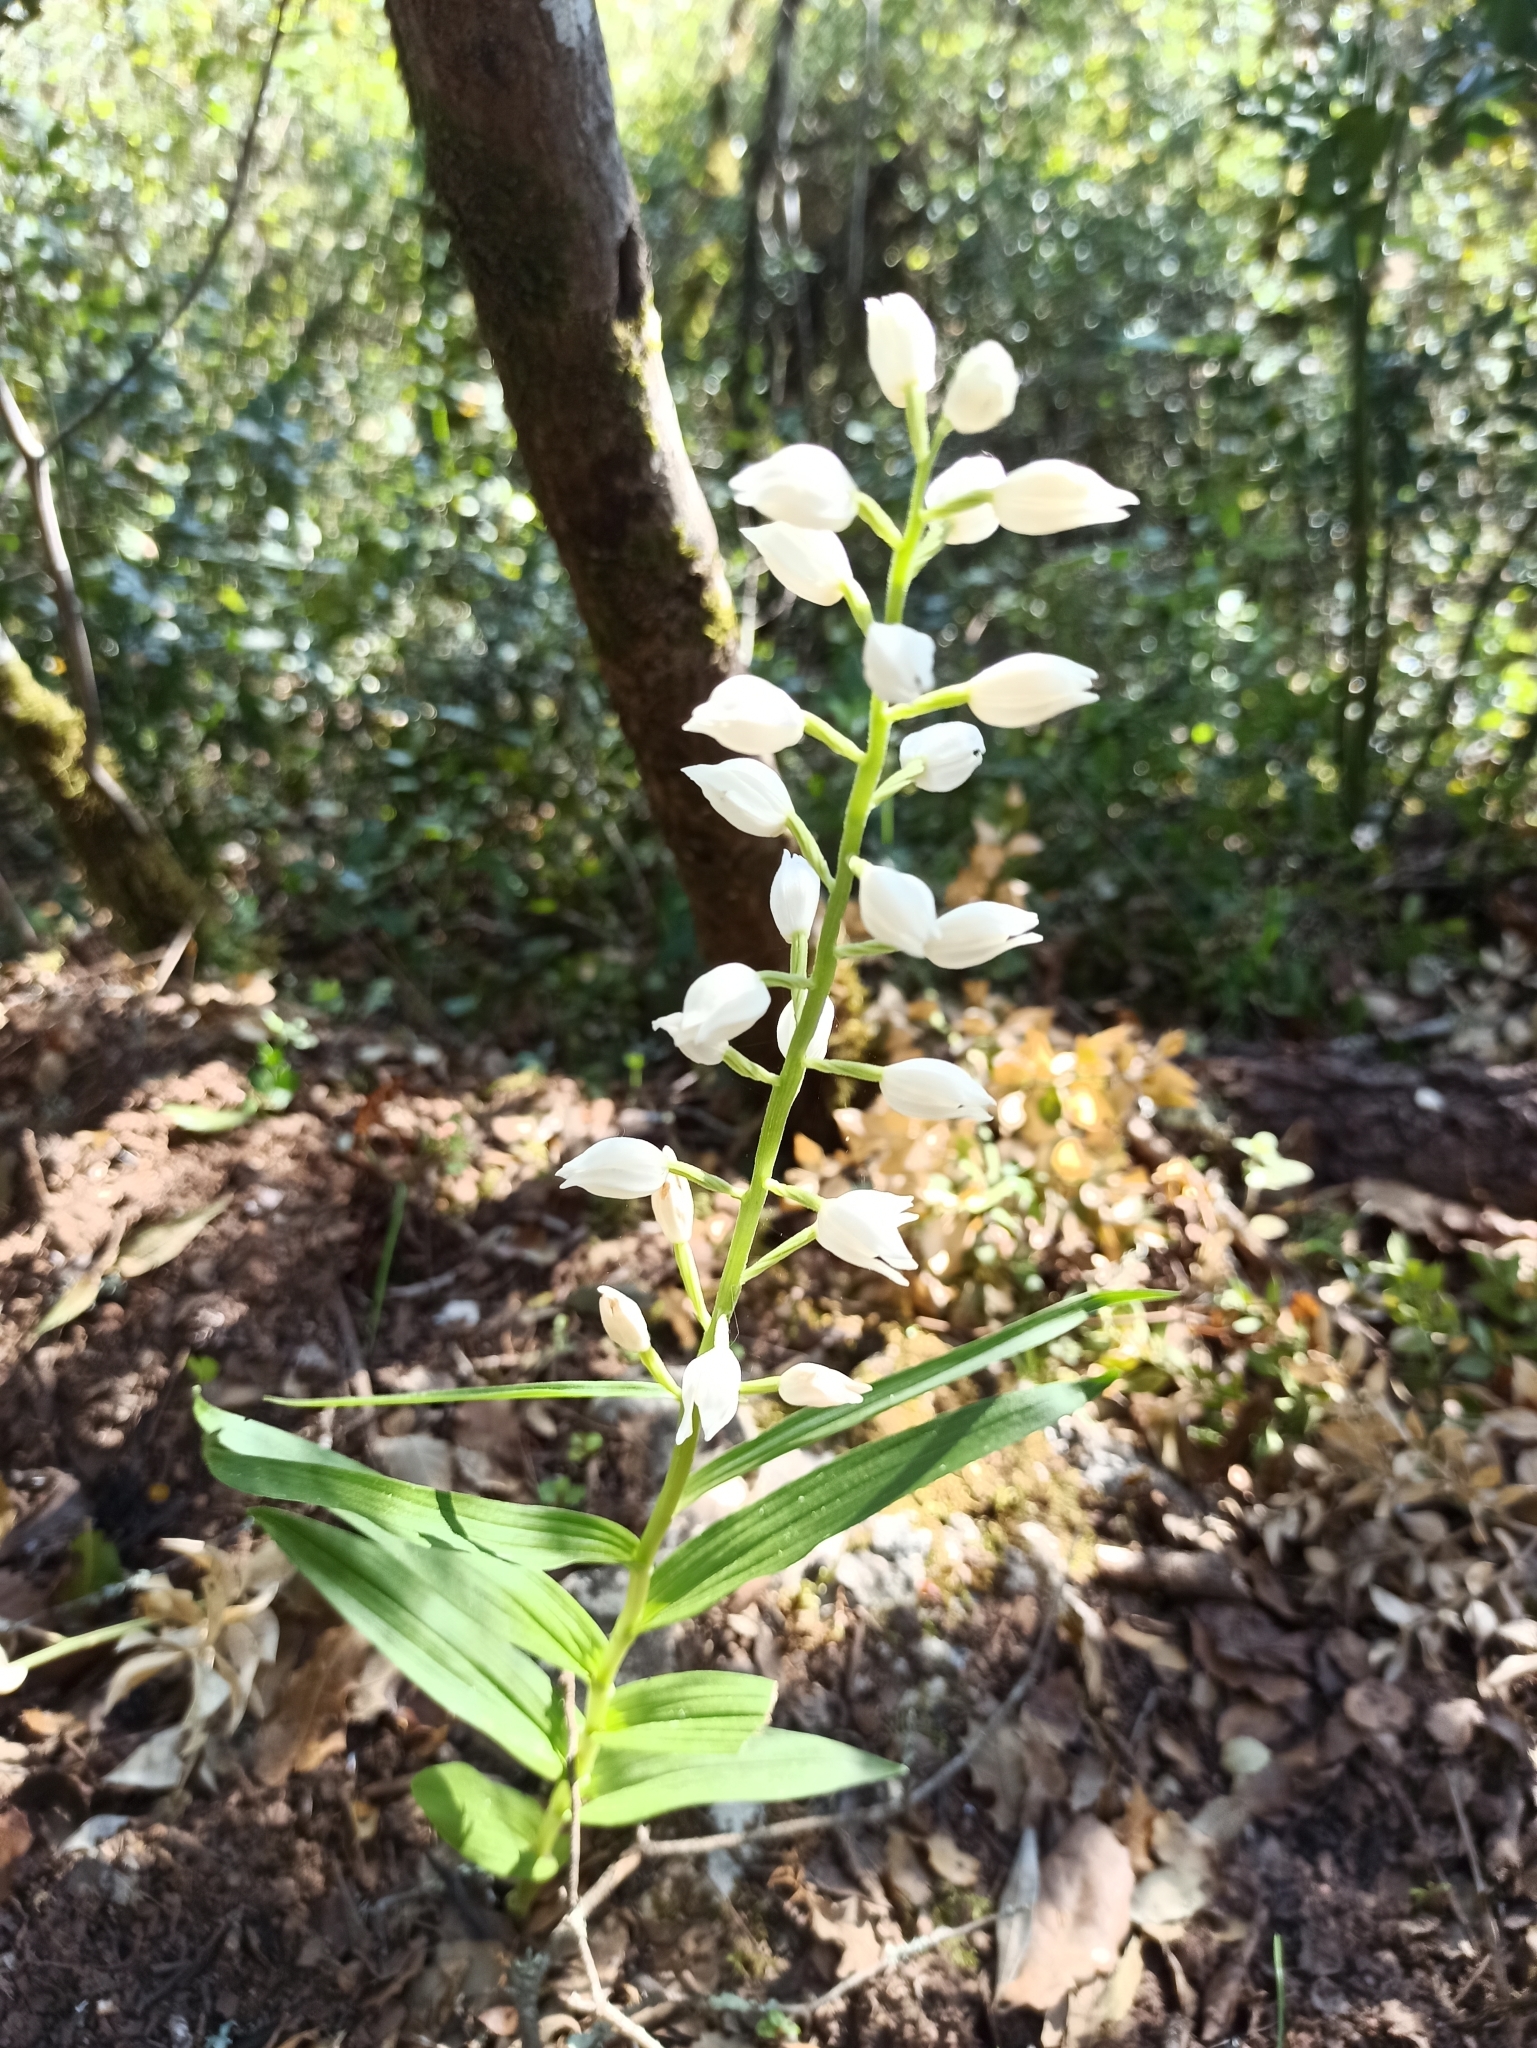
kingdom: Plantae
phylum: Tracheophyta
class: Liliopsida
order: Asparagales
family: Orchidaceae
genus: Cephalanthera
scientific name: Cephalanthera longifolia
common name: Narrow-leaved helleborine
